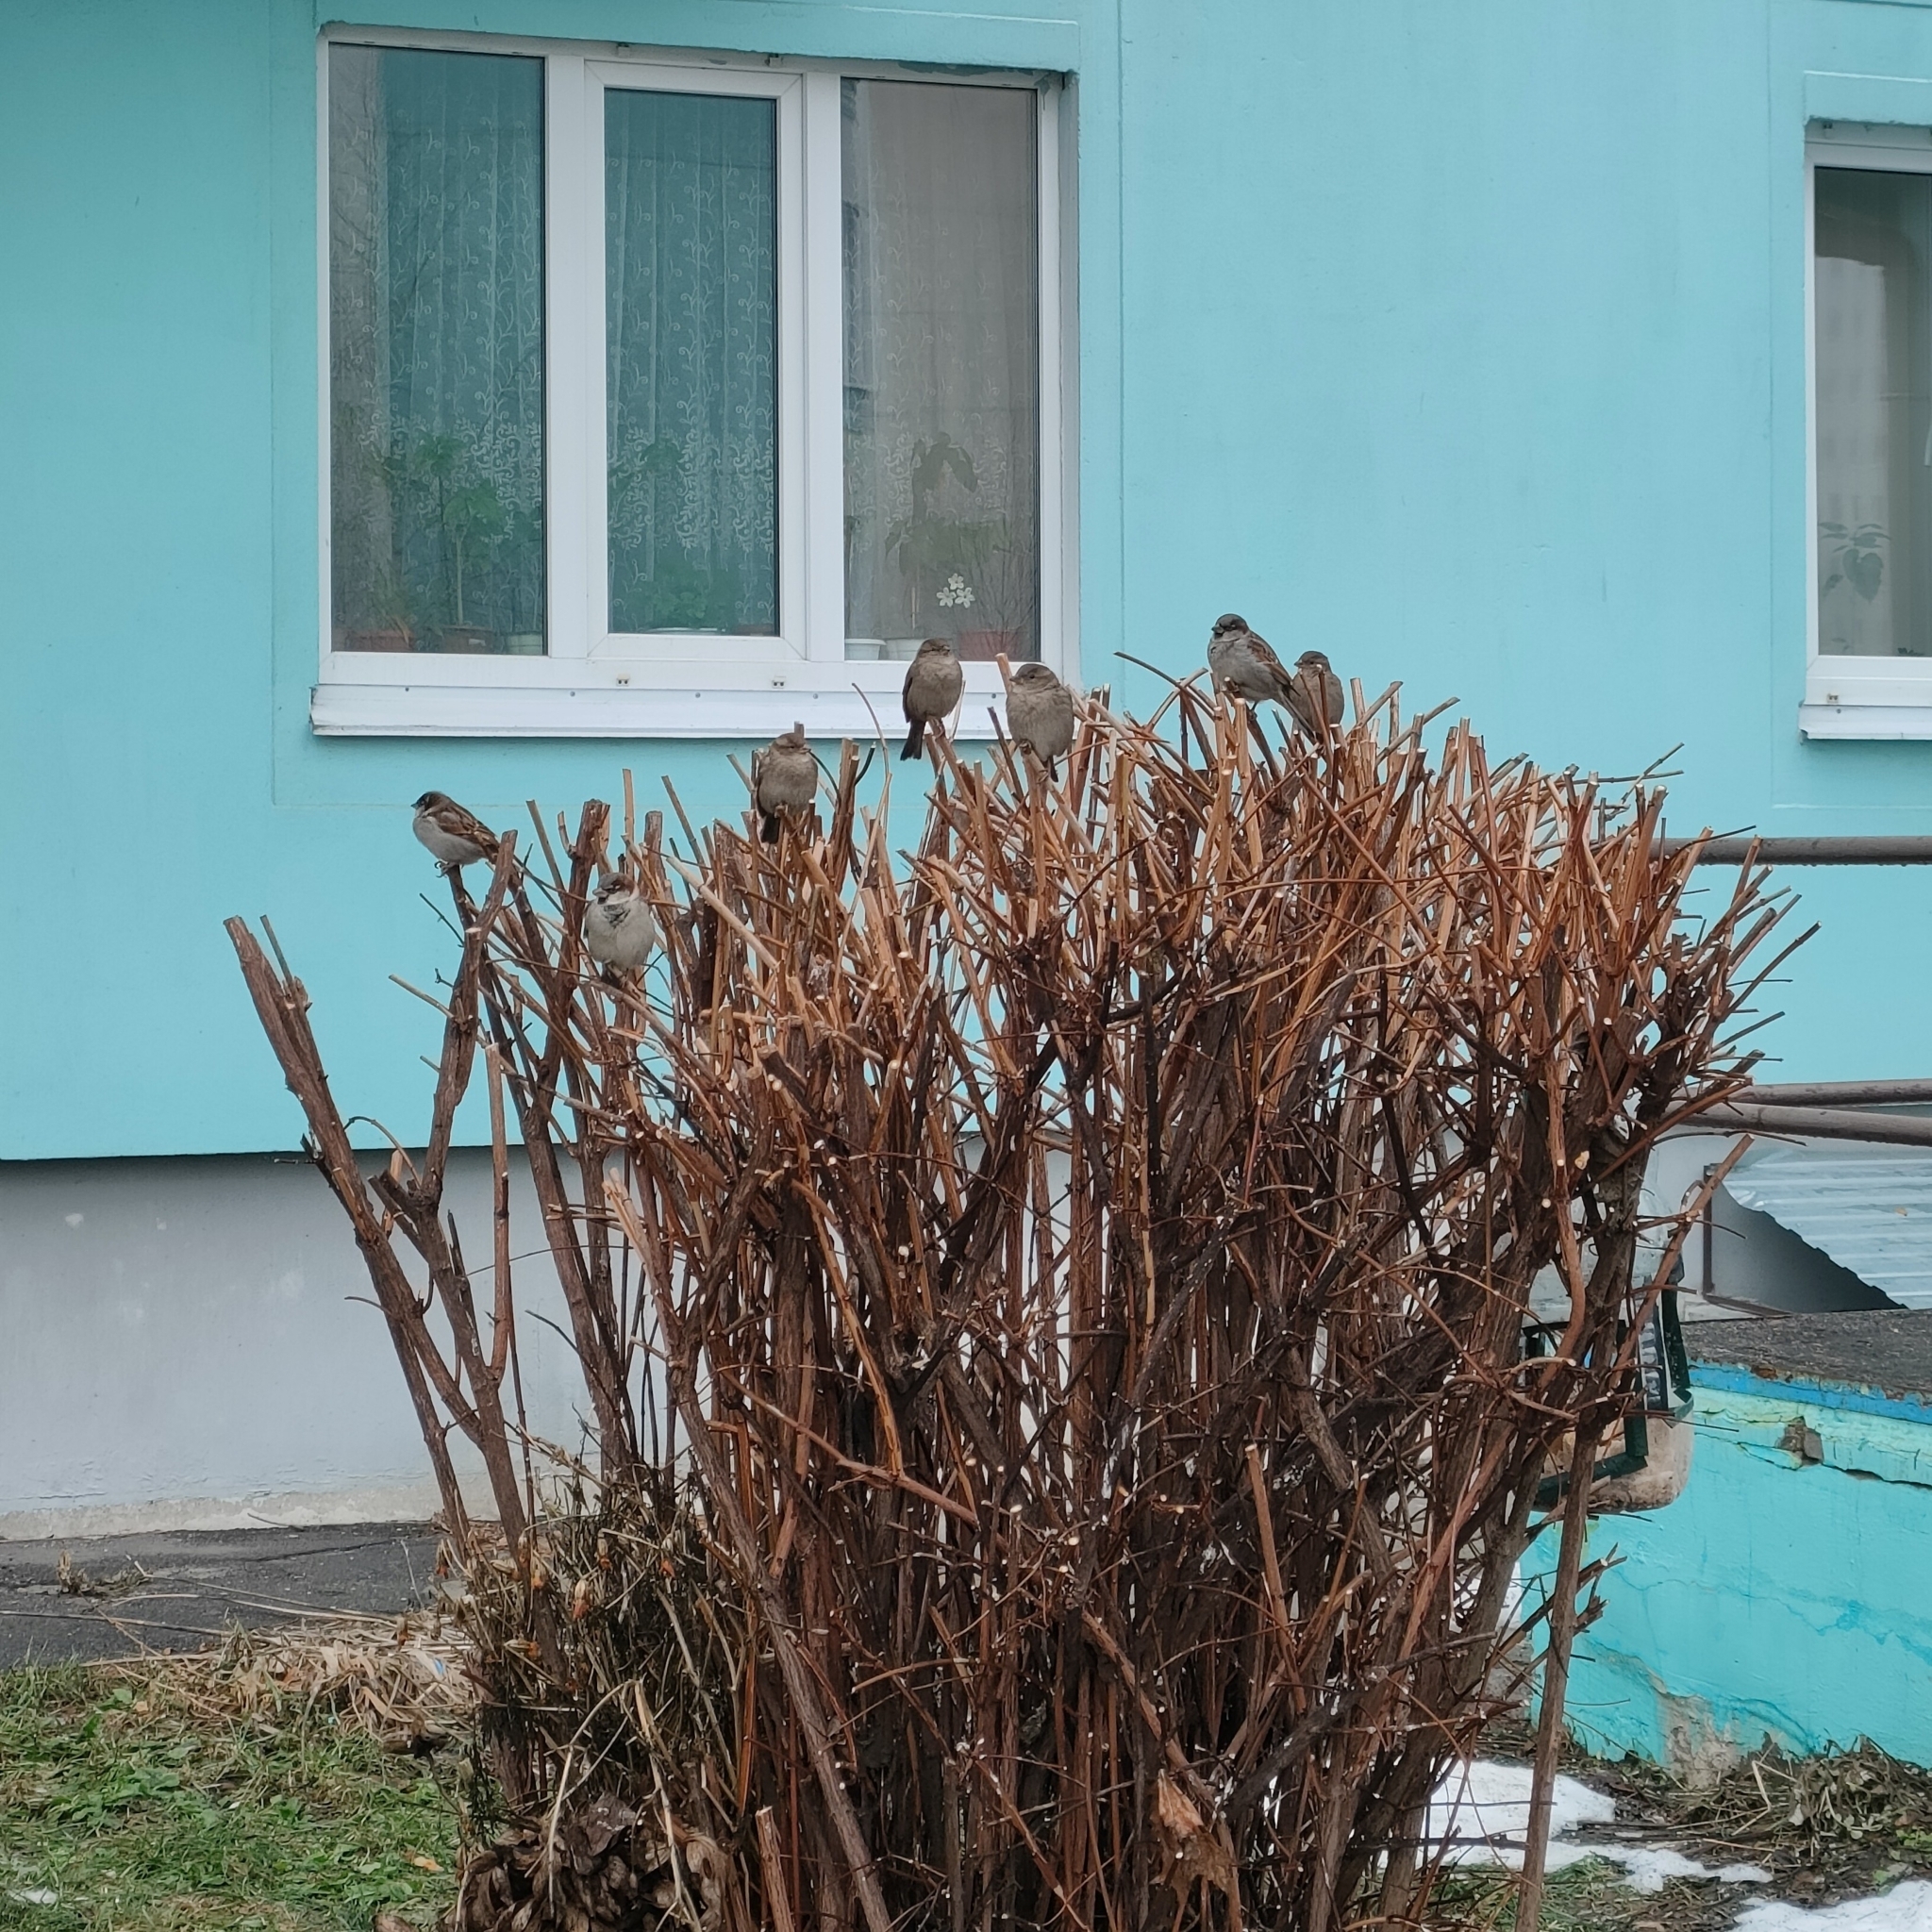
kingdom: Animalia
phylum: Chordata
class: Aves
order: Passeriformes
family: Passeridae
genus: Passer
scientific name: Passer domesticus
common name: House sparrow
